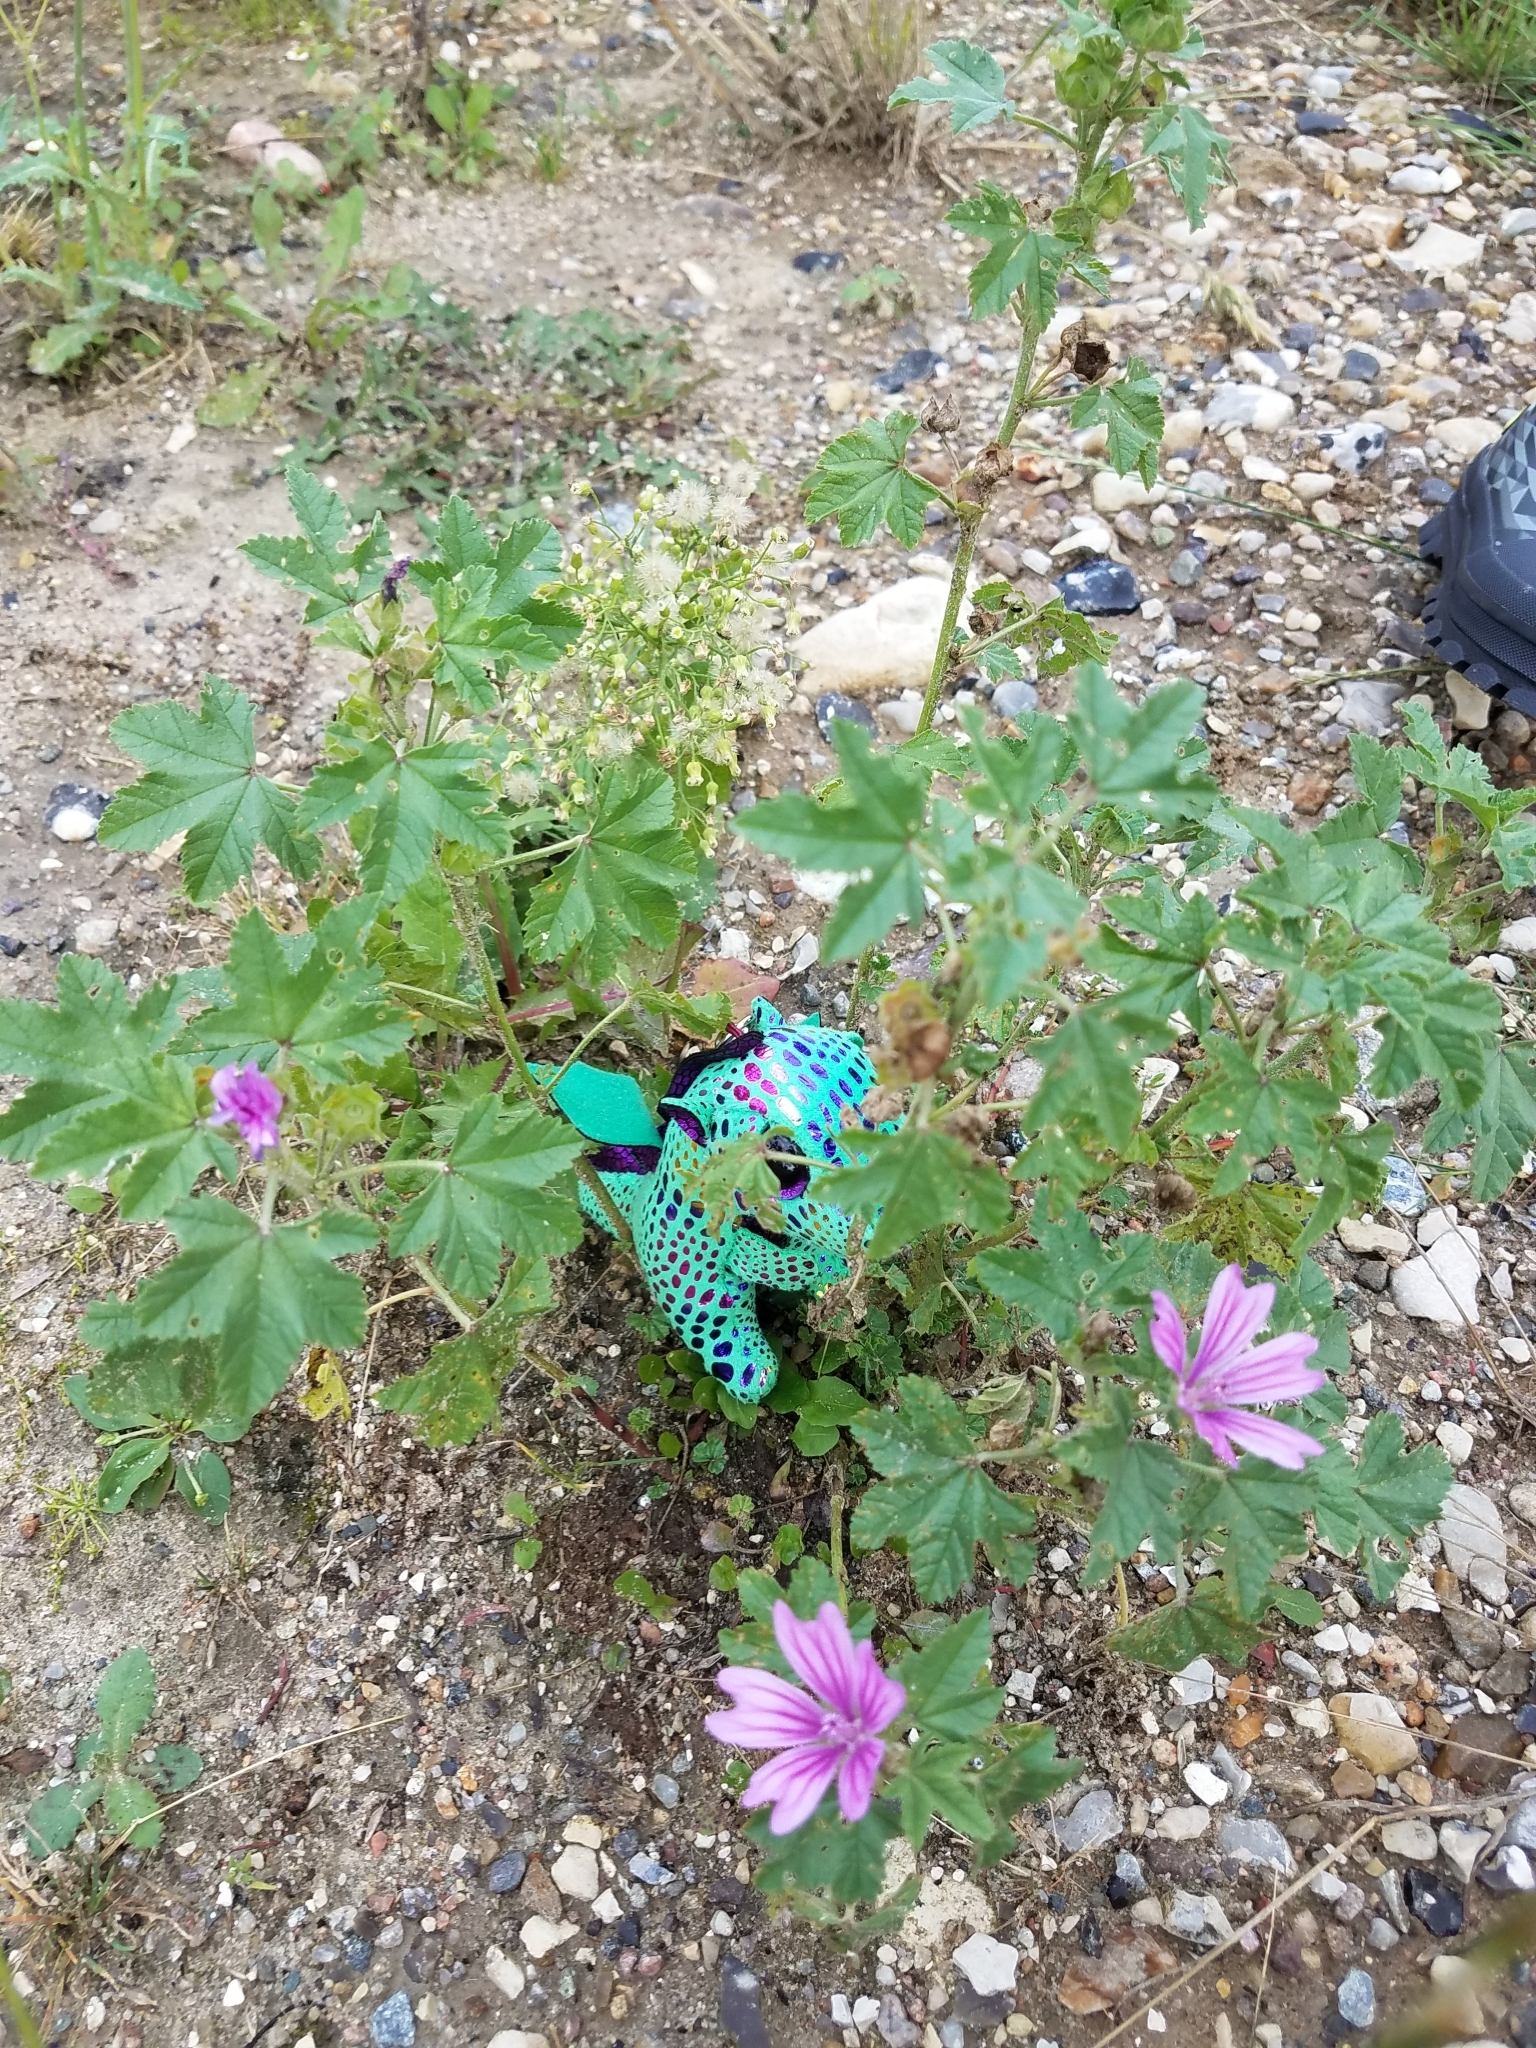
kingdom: Plantae
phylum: Tracheophyta
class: Magnoliopsida
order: Malvales
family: Malvaceae
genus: Malva
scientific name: Malva sylvestris
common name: Common mallow
